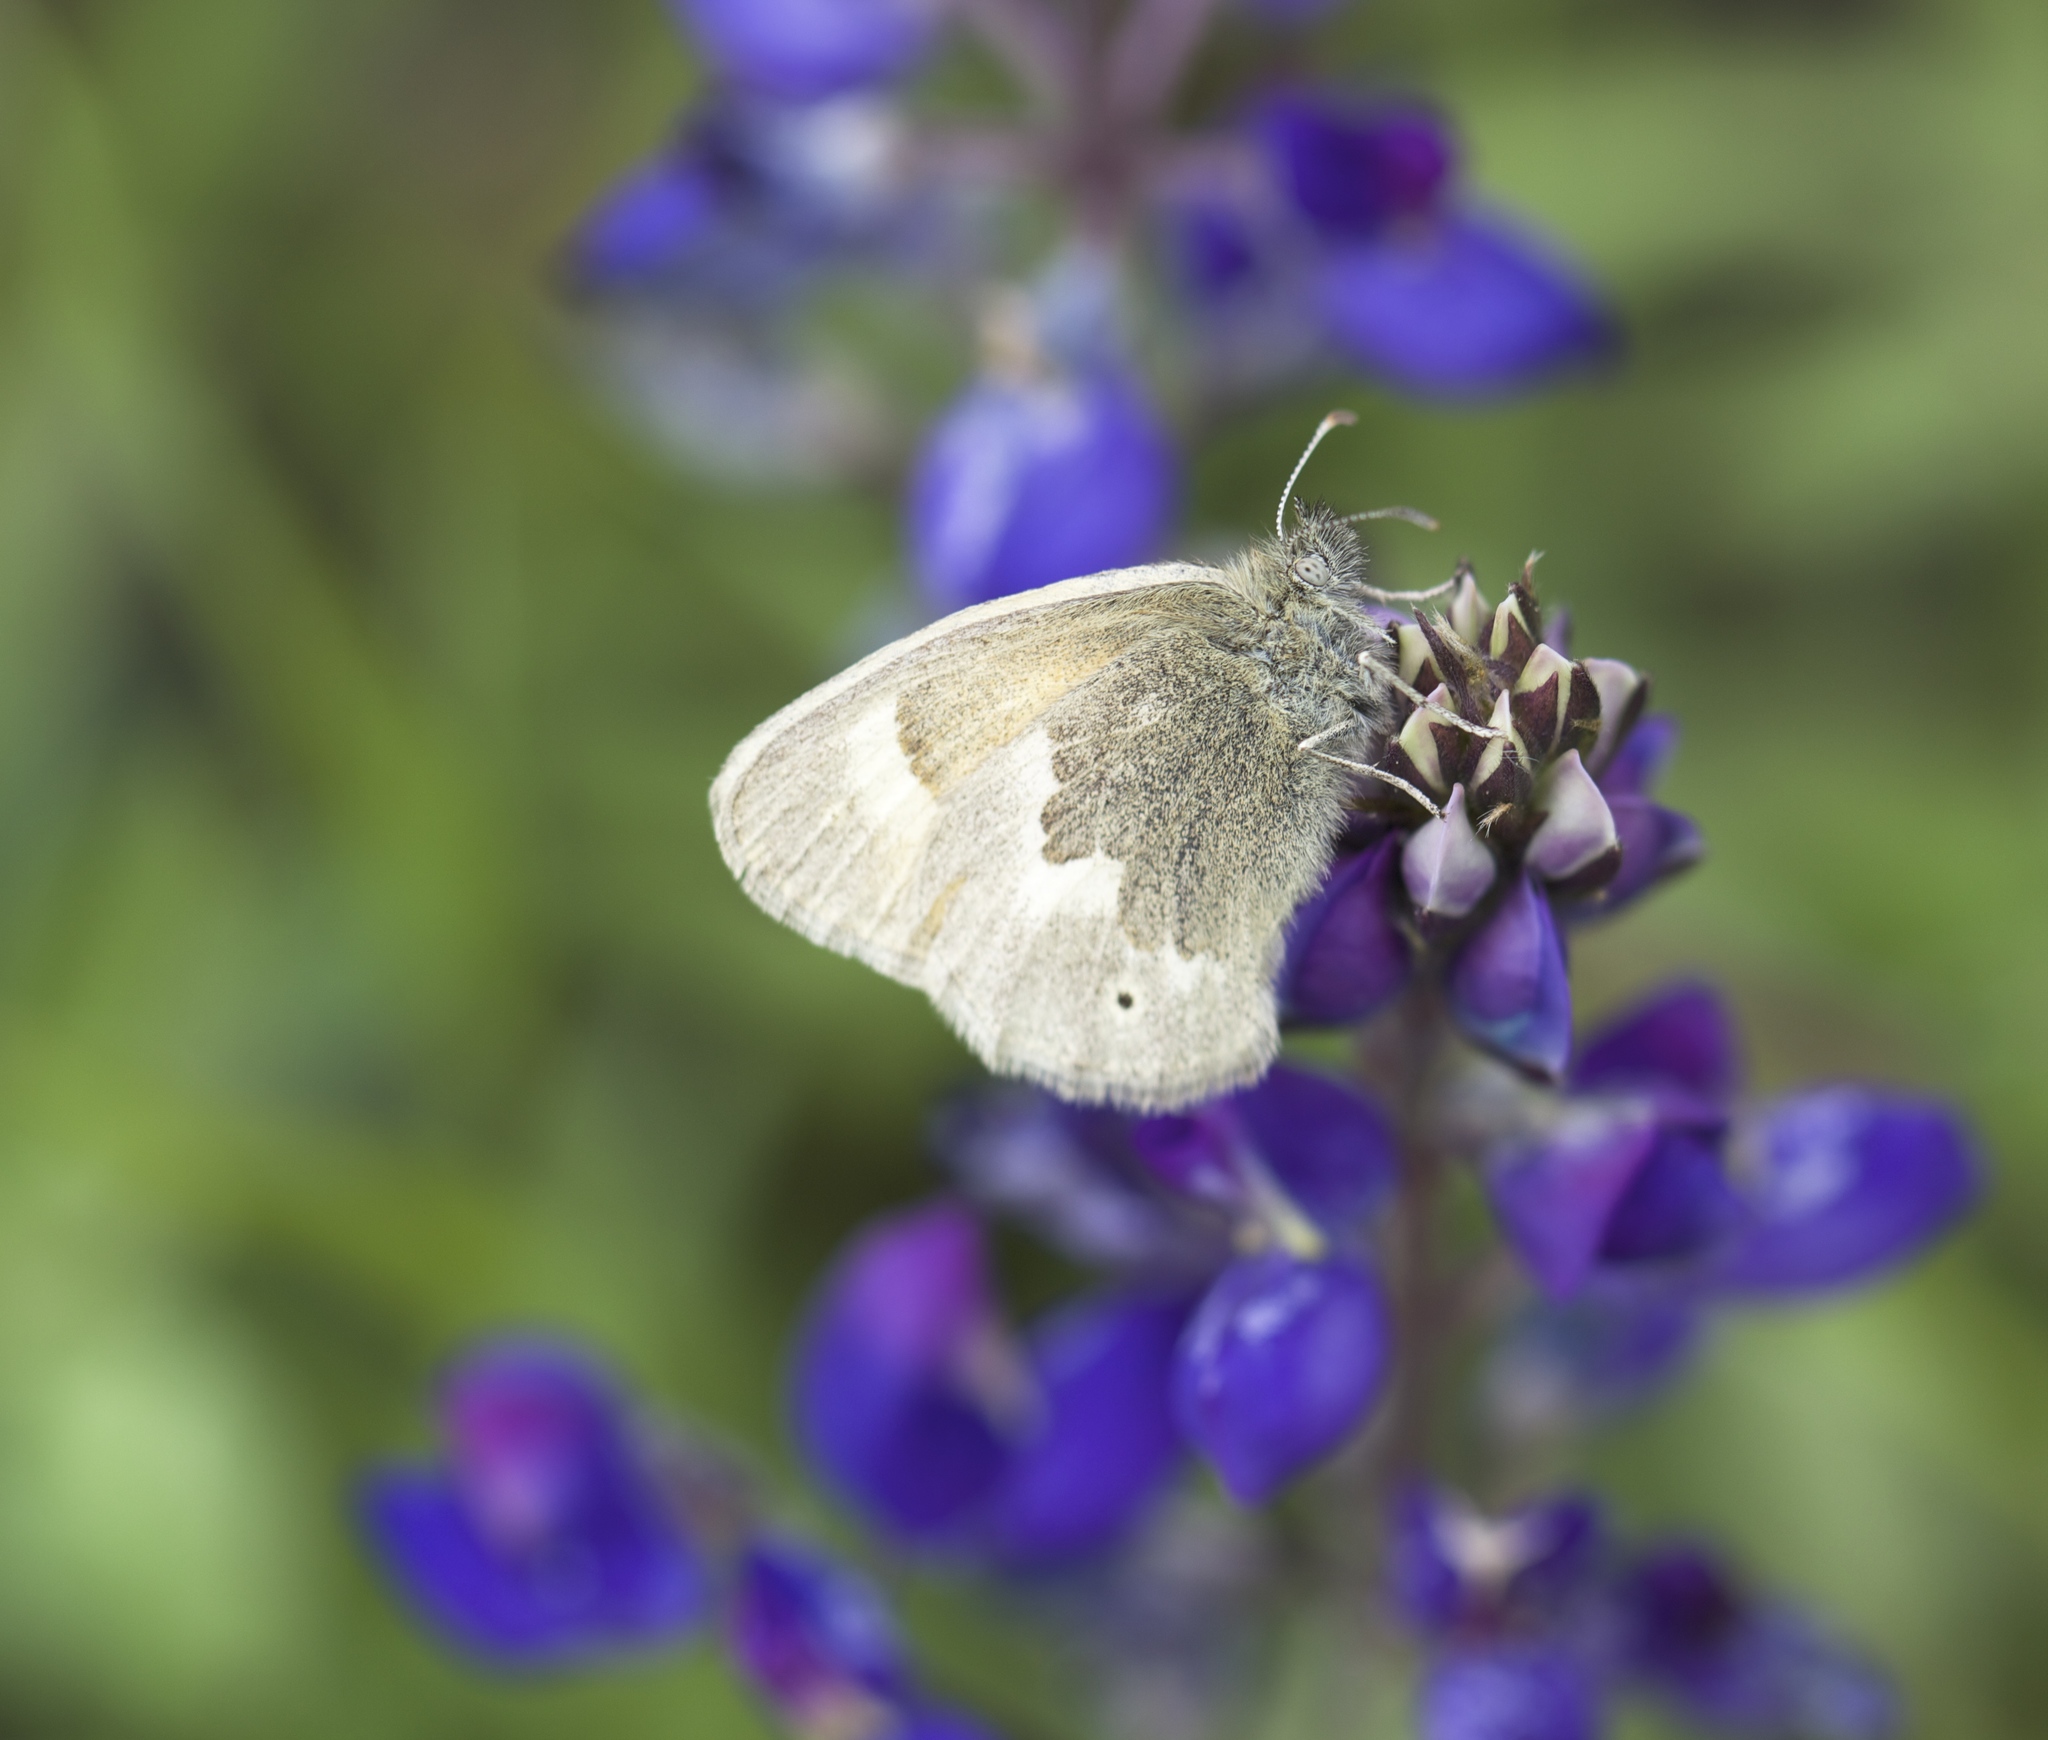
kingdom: Animalia
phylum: Arthropoda
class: Insecta
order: Lepidoptera
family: Nymphalidae
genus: Coenonympha
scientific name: Coenonympha california
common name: Common ringlet
